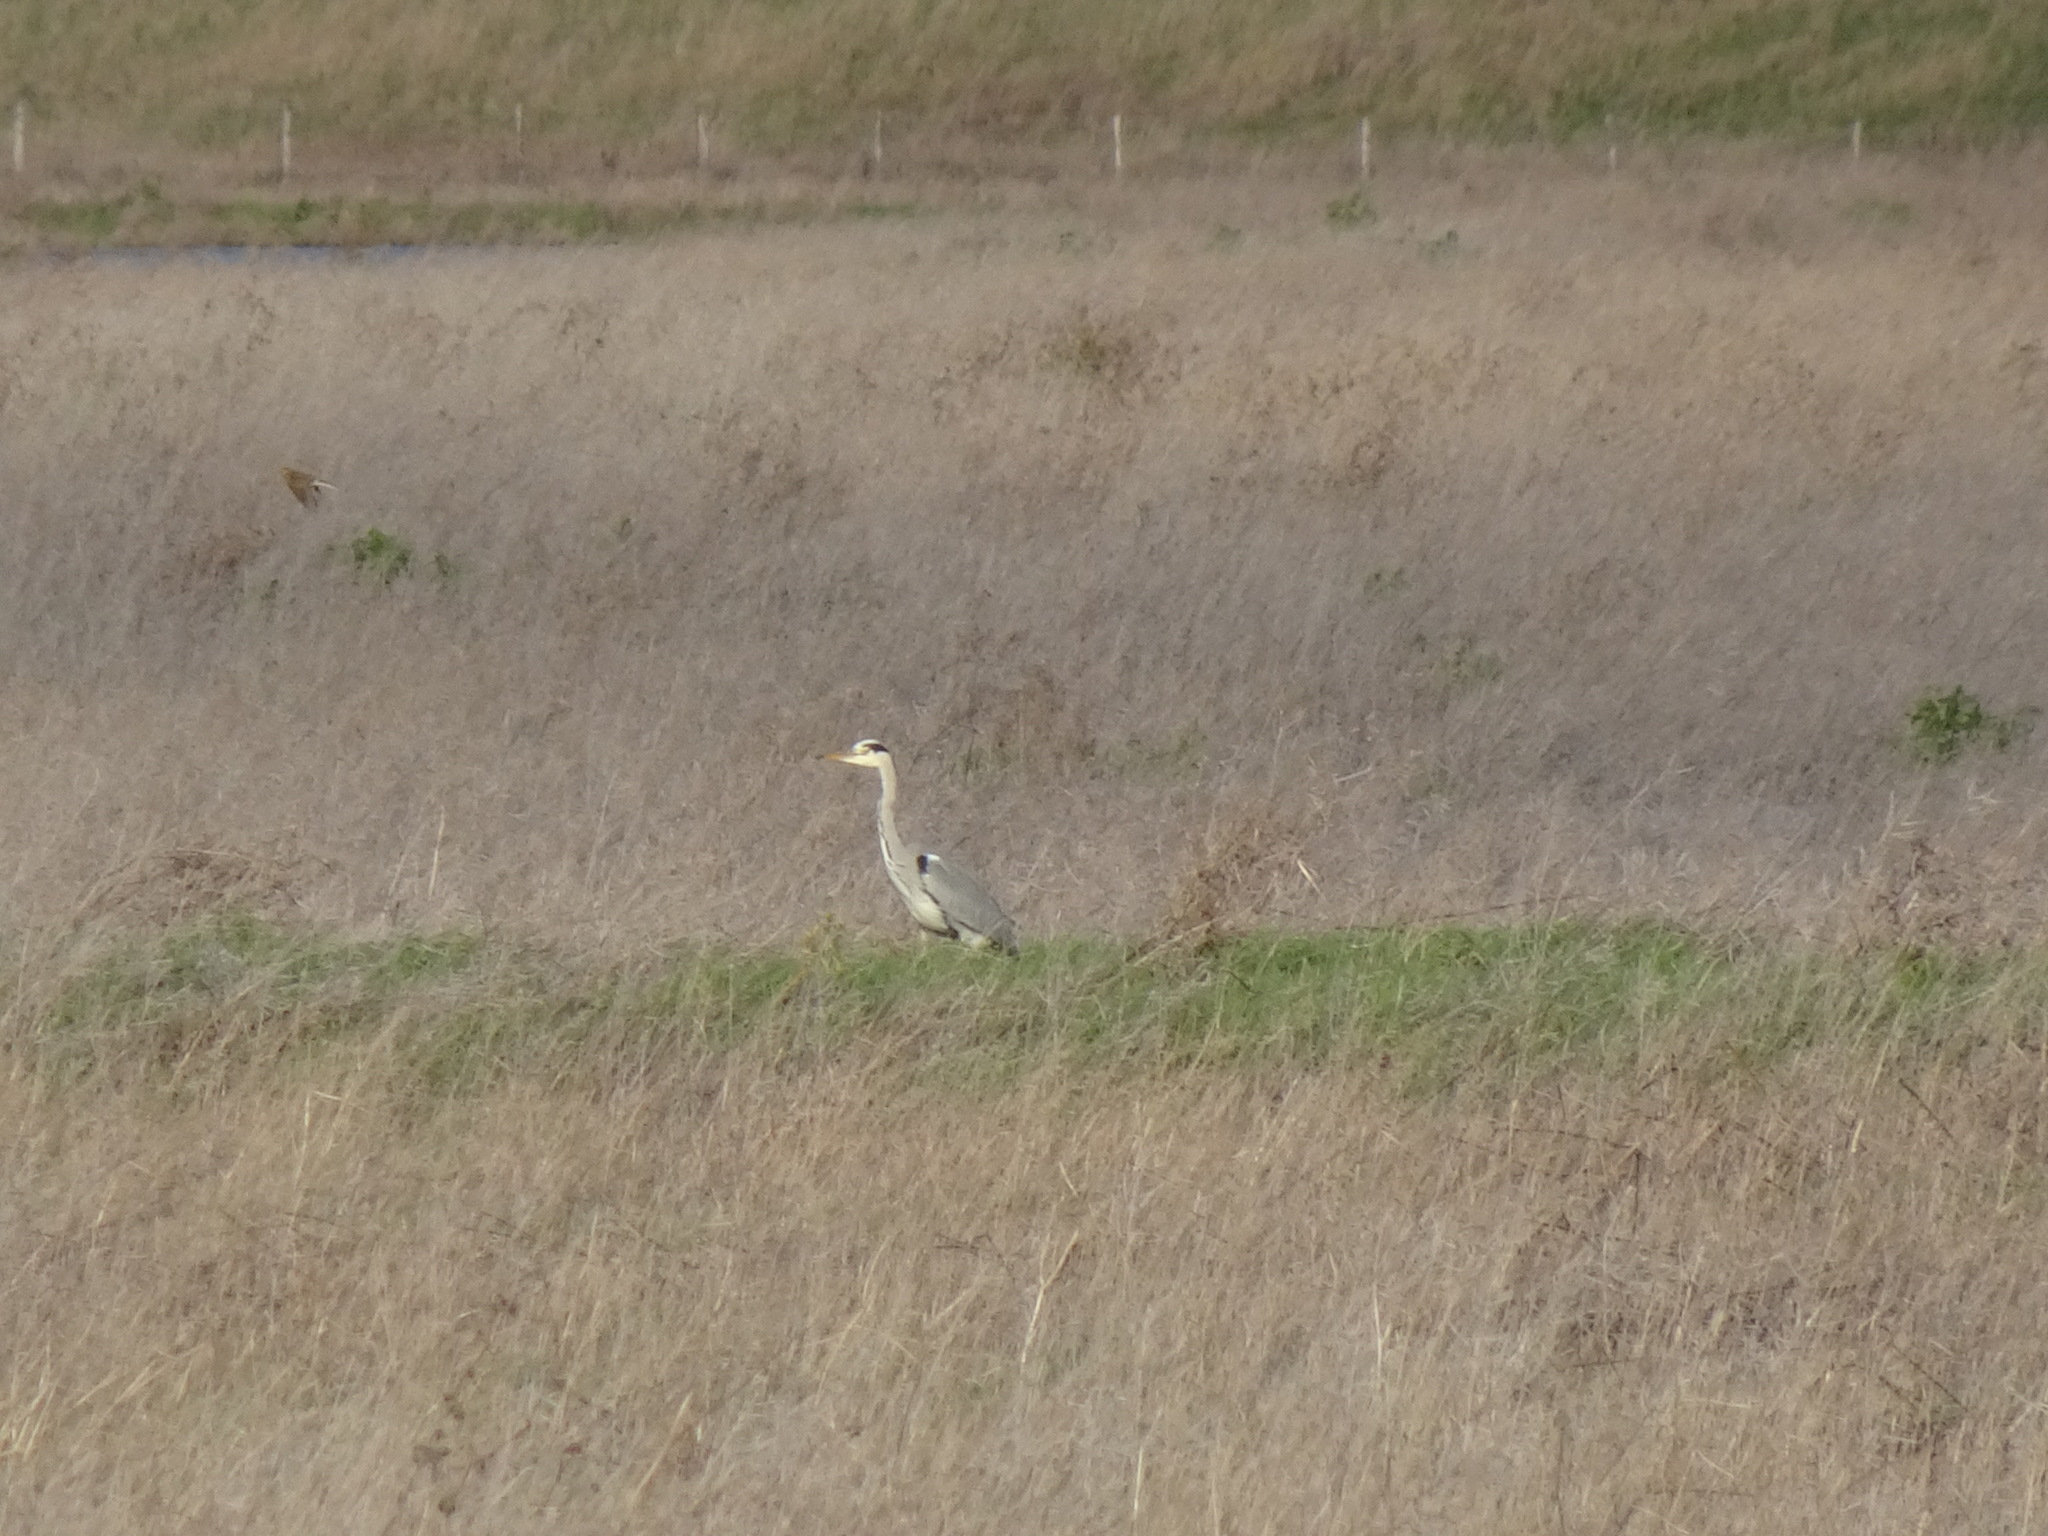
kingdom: Animalia
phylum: Chordata
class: Aves
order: Pelecaniformes
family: Ardeidae
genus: Ardea
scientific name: Ardea cinerea
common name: Grey heron
